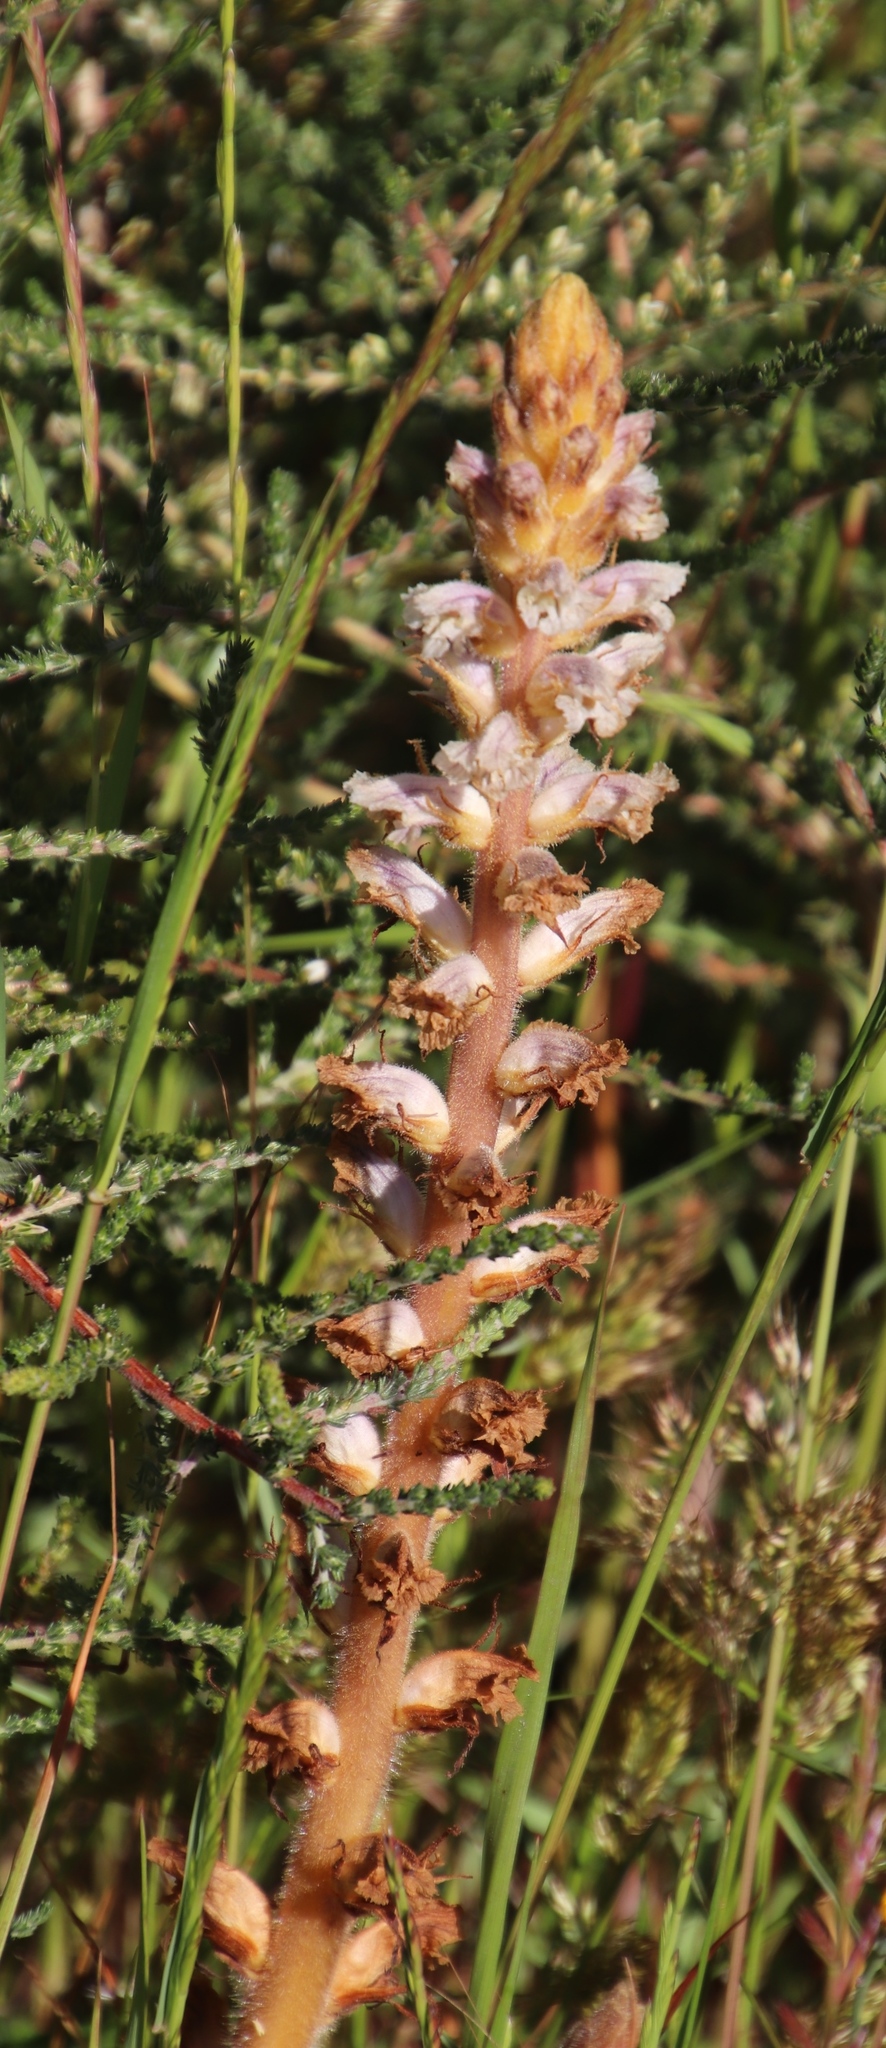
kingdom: Plantae
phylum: Tracheophyta
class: Magnoliopsida
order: Lamiales
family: Orobanchaceae
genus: Orobanche
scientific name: Orobanche minor
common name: Common broomrape
